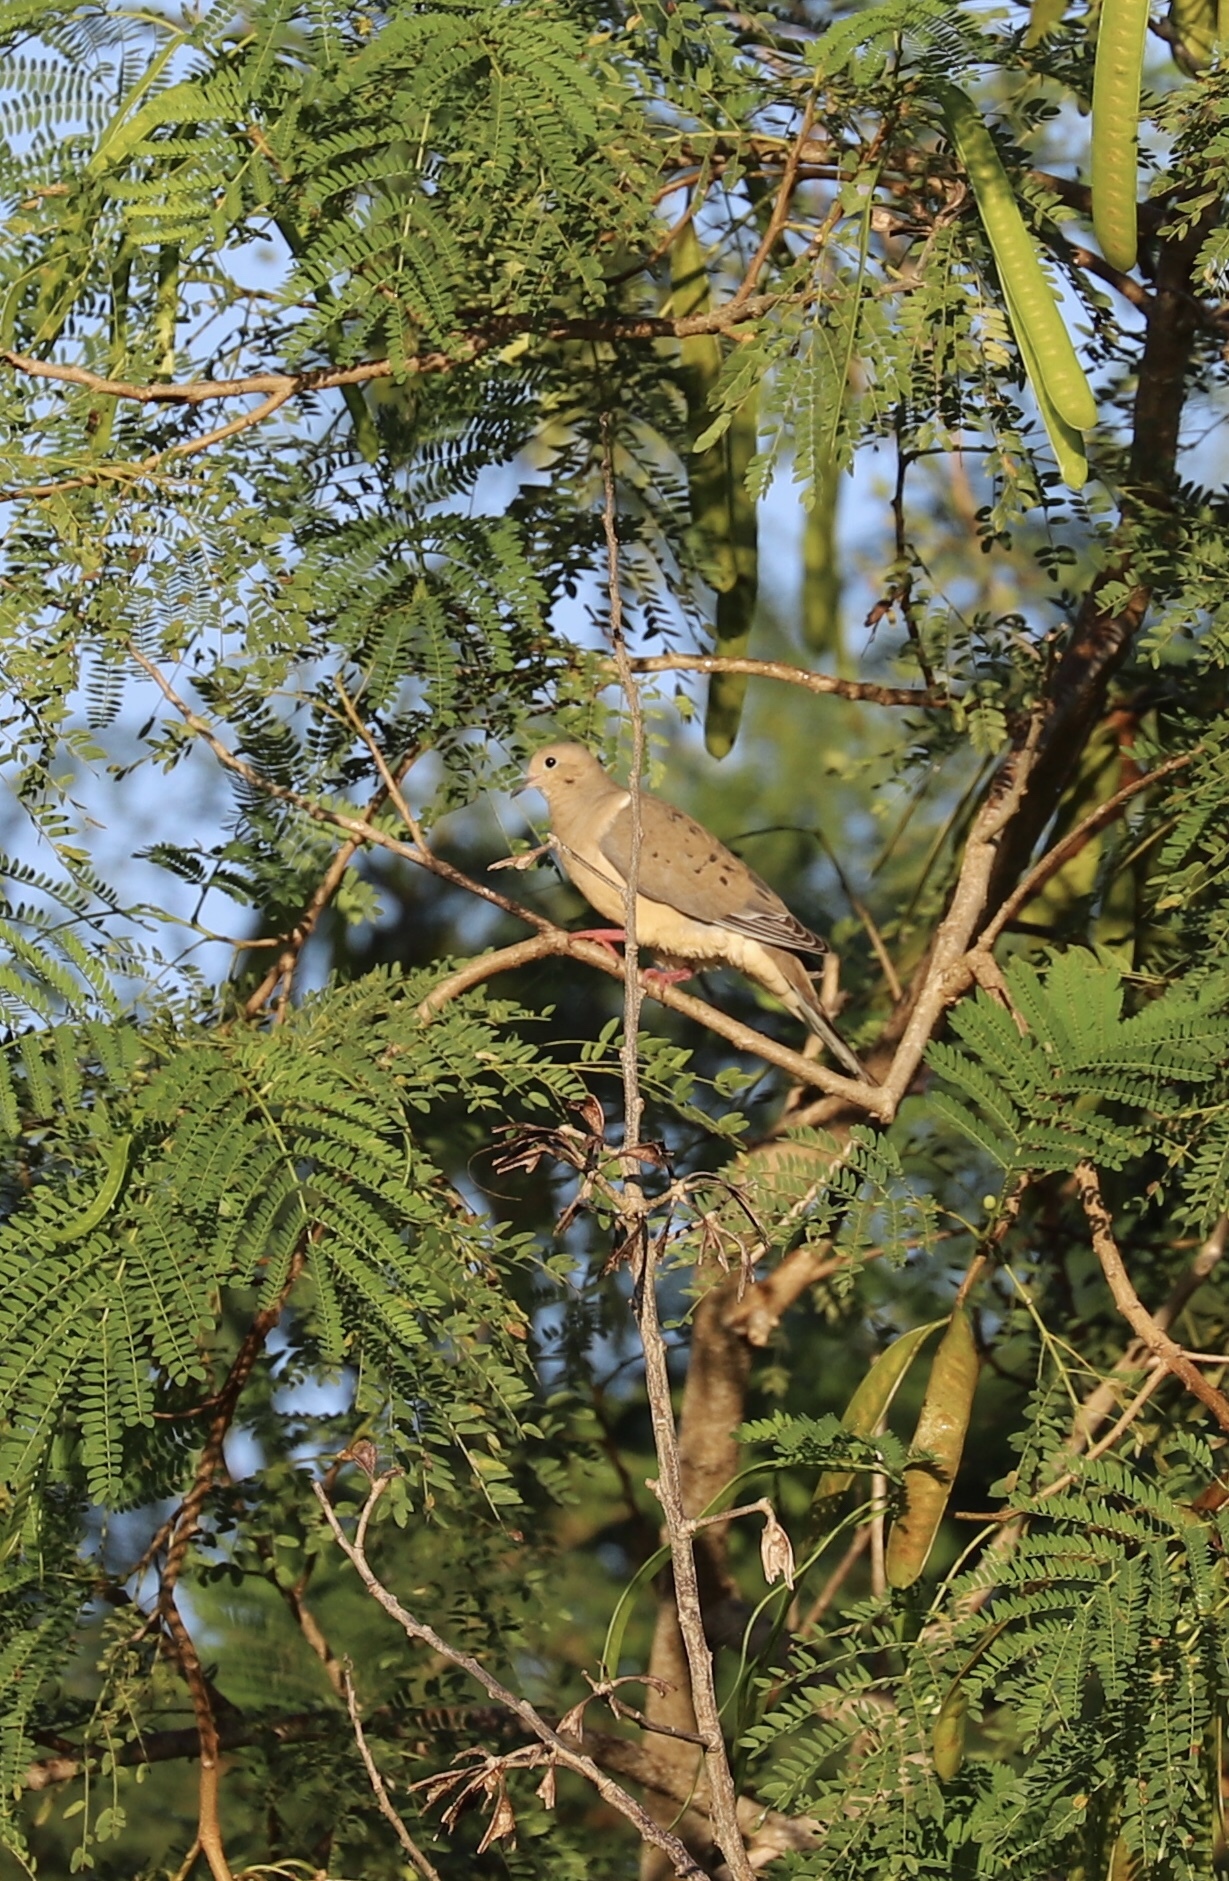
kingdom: Animalia
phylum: Chordata
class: Aves
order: Columbiformes
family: Columbidae
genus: Zenaida
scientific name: Zenaida macroura
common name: Mourning dove
